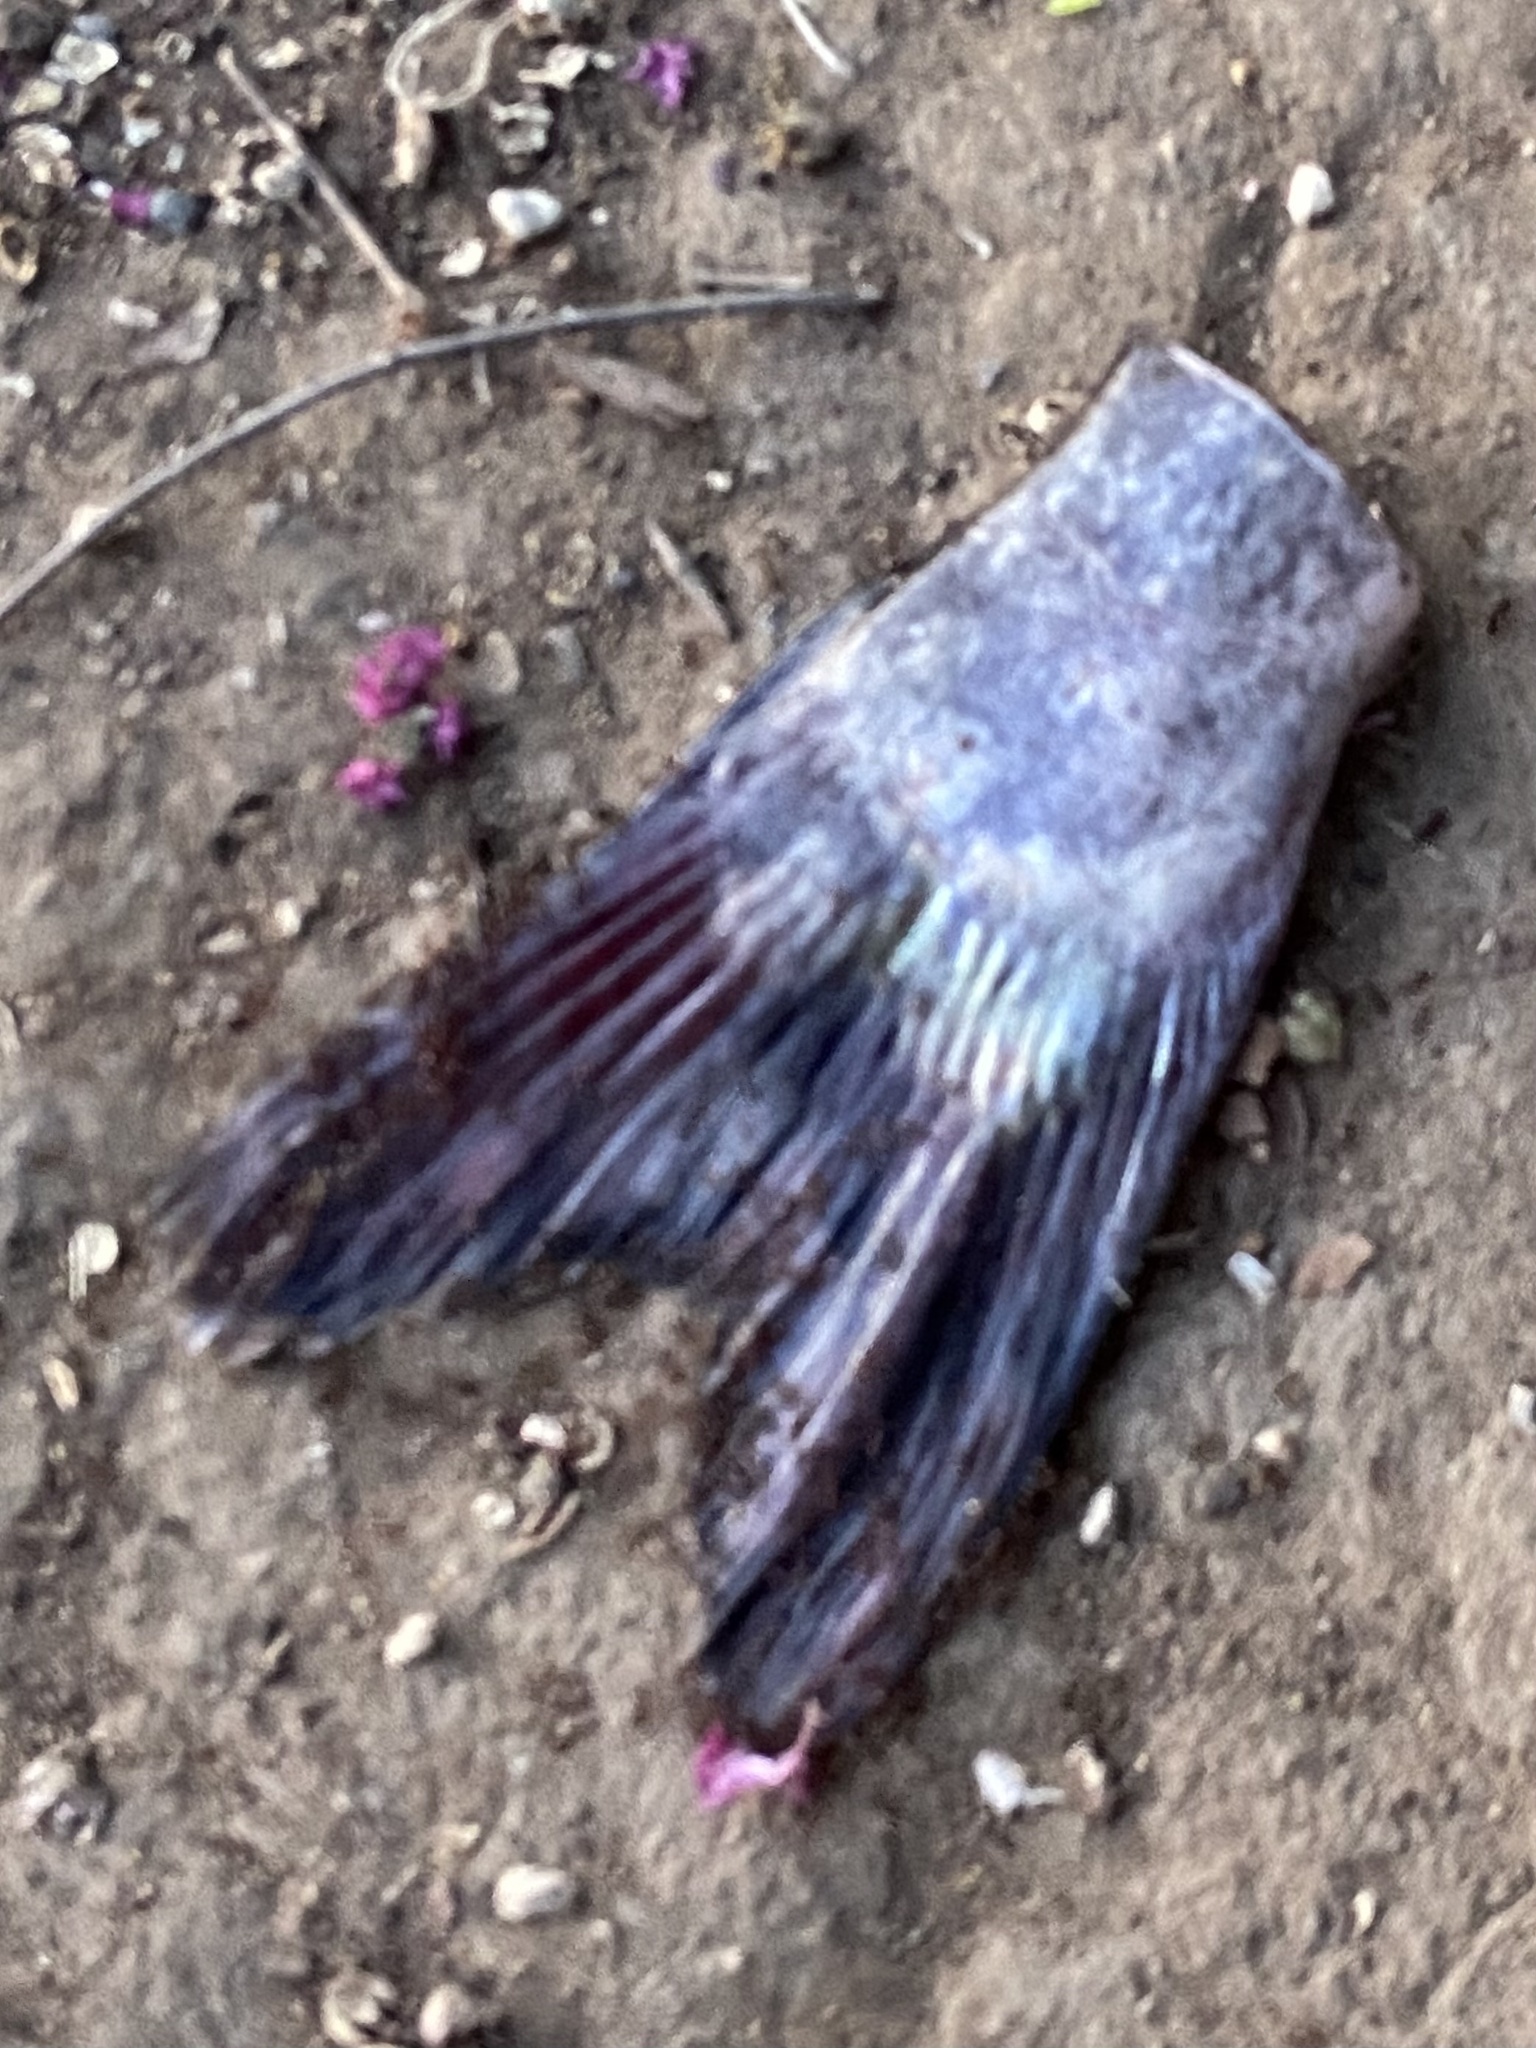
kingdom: Animalia
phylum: Chordata
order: Siluriformes
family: Ictaluridae
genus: Ictalurus
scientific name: Ictalurus punctatus
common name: Channel catfish
